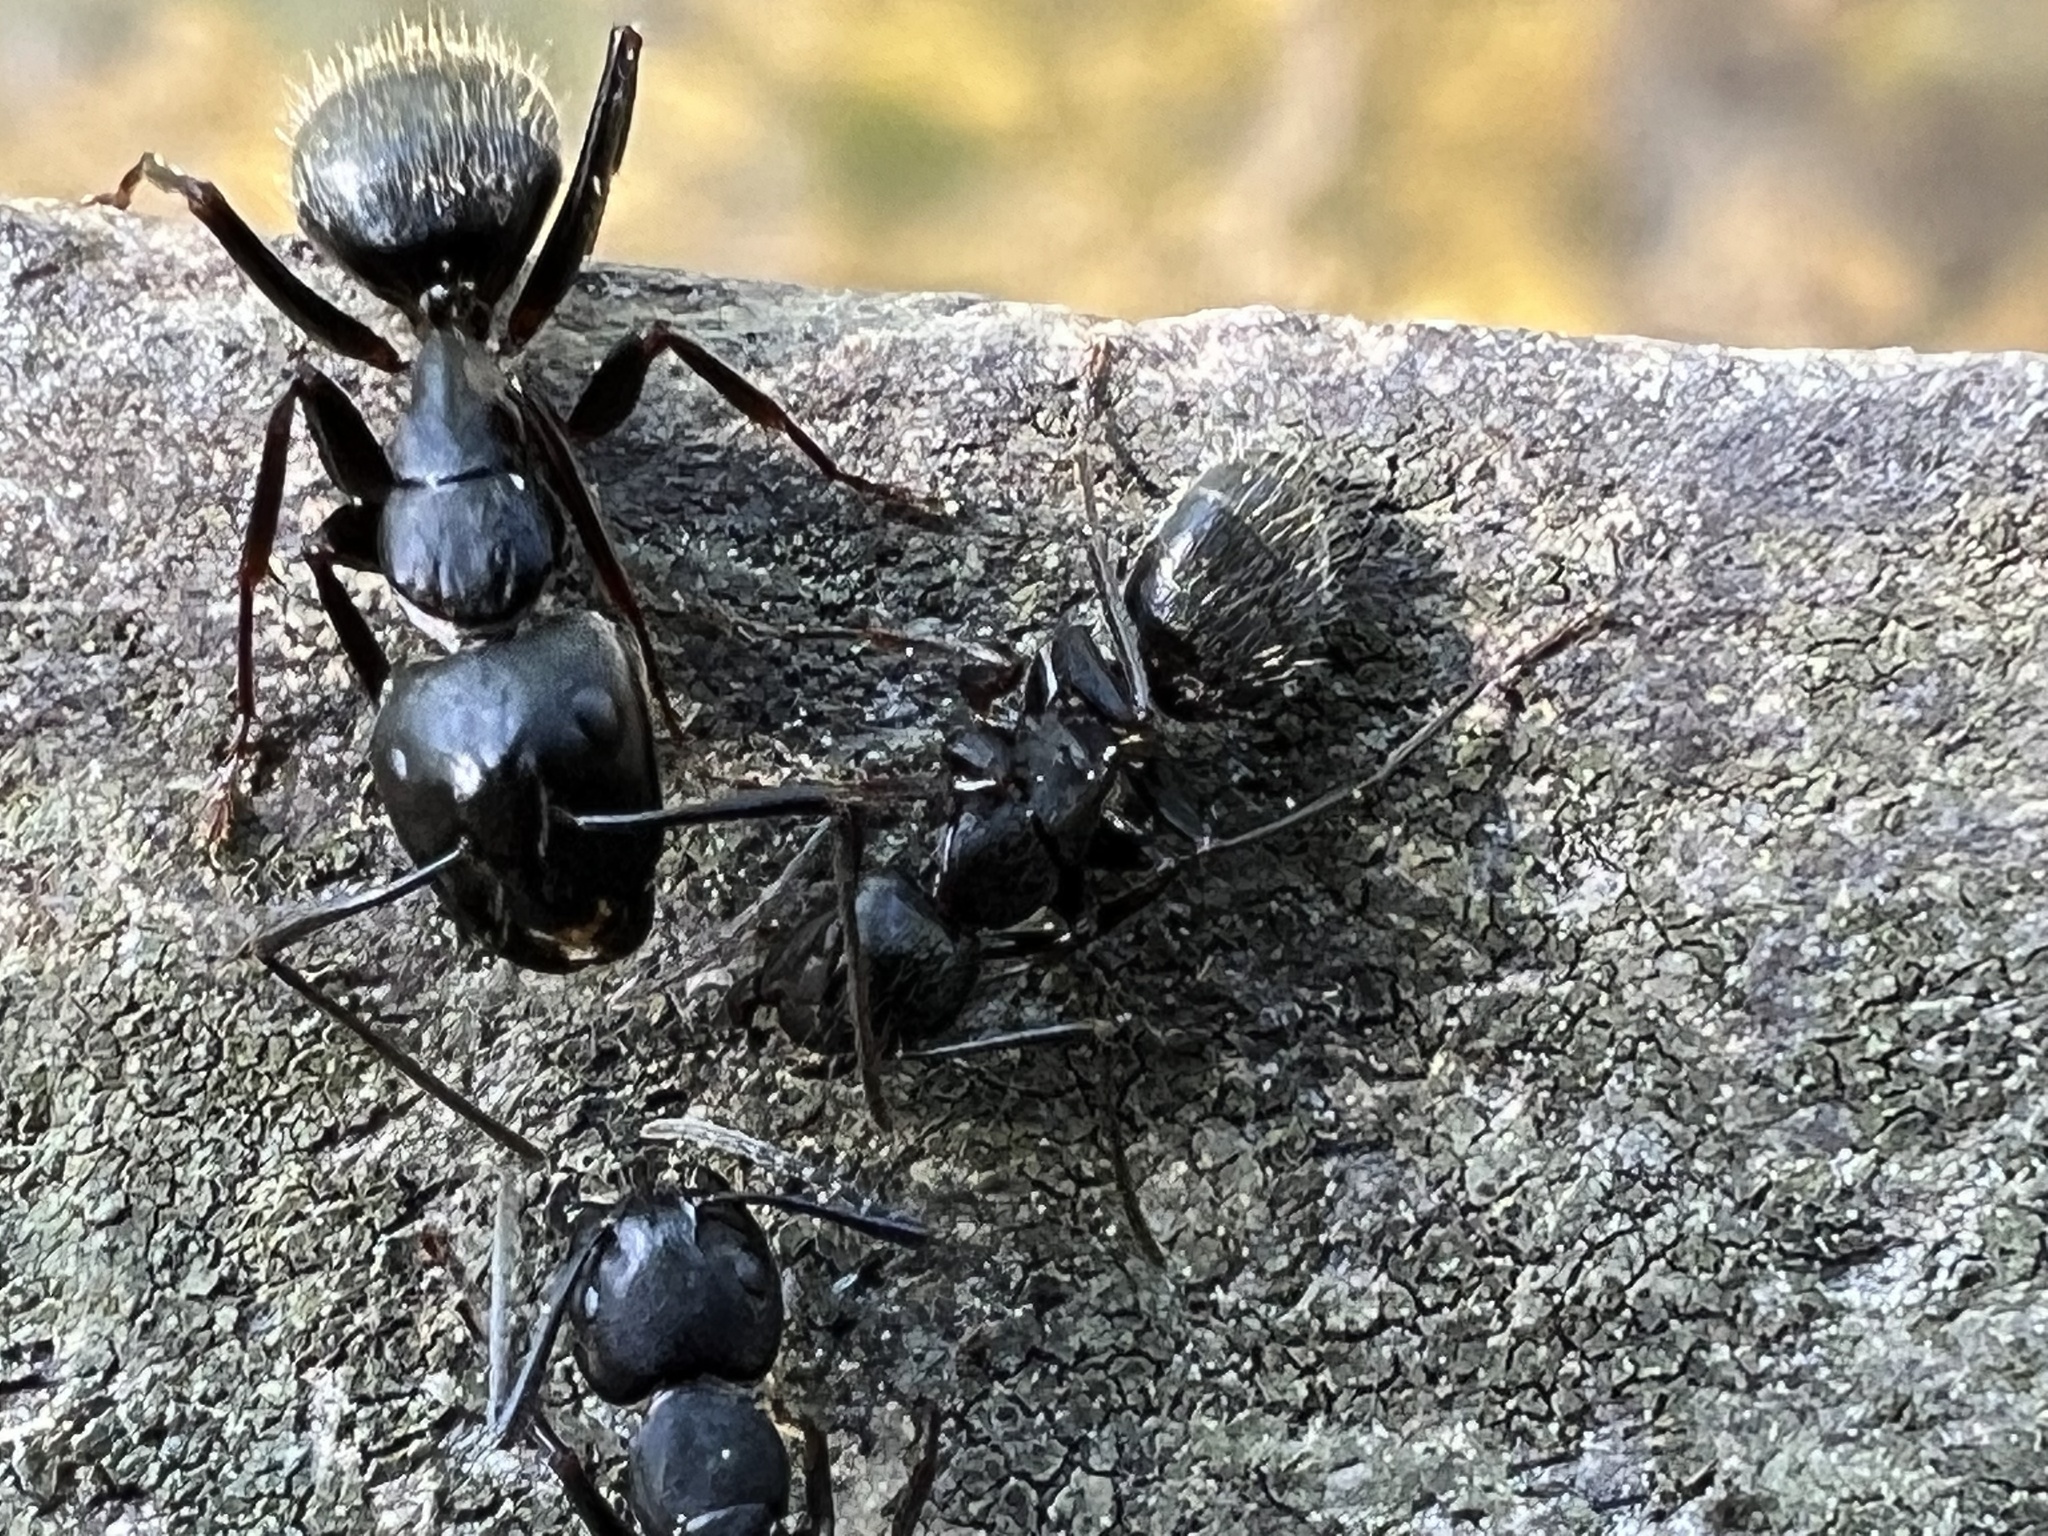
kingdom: Animalia
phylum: Arthropoda
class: Insecta
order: Hymenoptera
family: Formicidae
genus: Camponotus
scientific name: Camponotus pennsylvanicus
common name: Black carpenter ant
